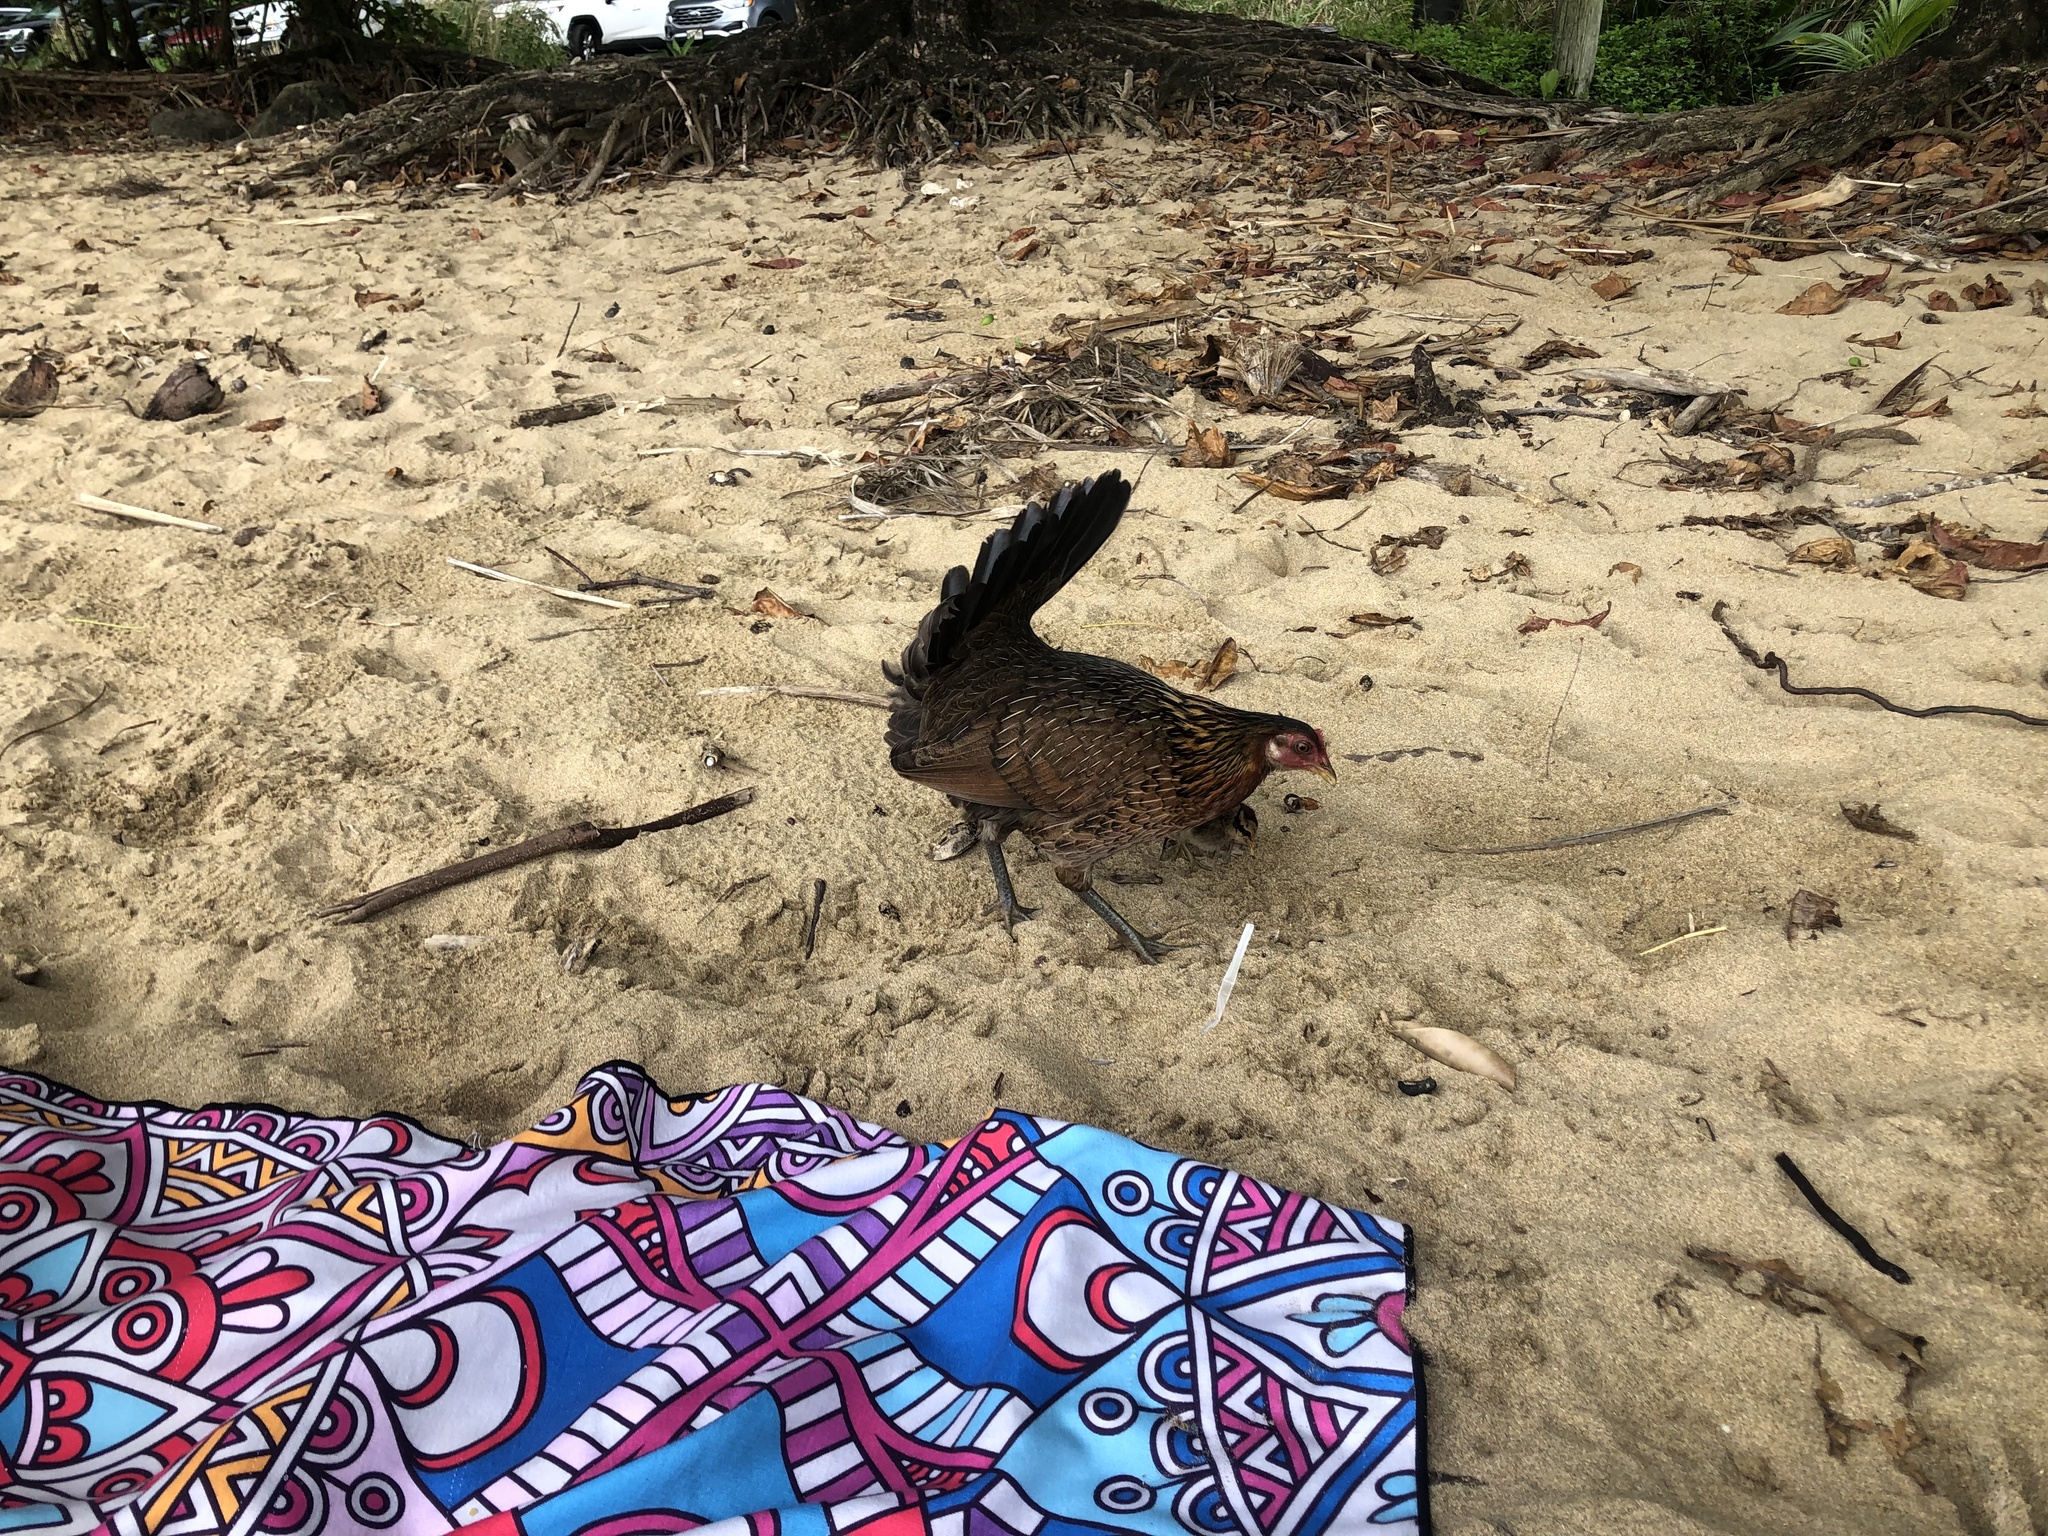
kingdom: Animalia
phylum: Chordata
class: Aves
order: Galliformes
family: Phasianidae
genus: Gallus
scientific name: Gallus gallus
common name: Red junglefowl
